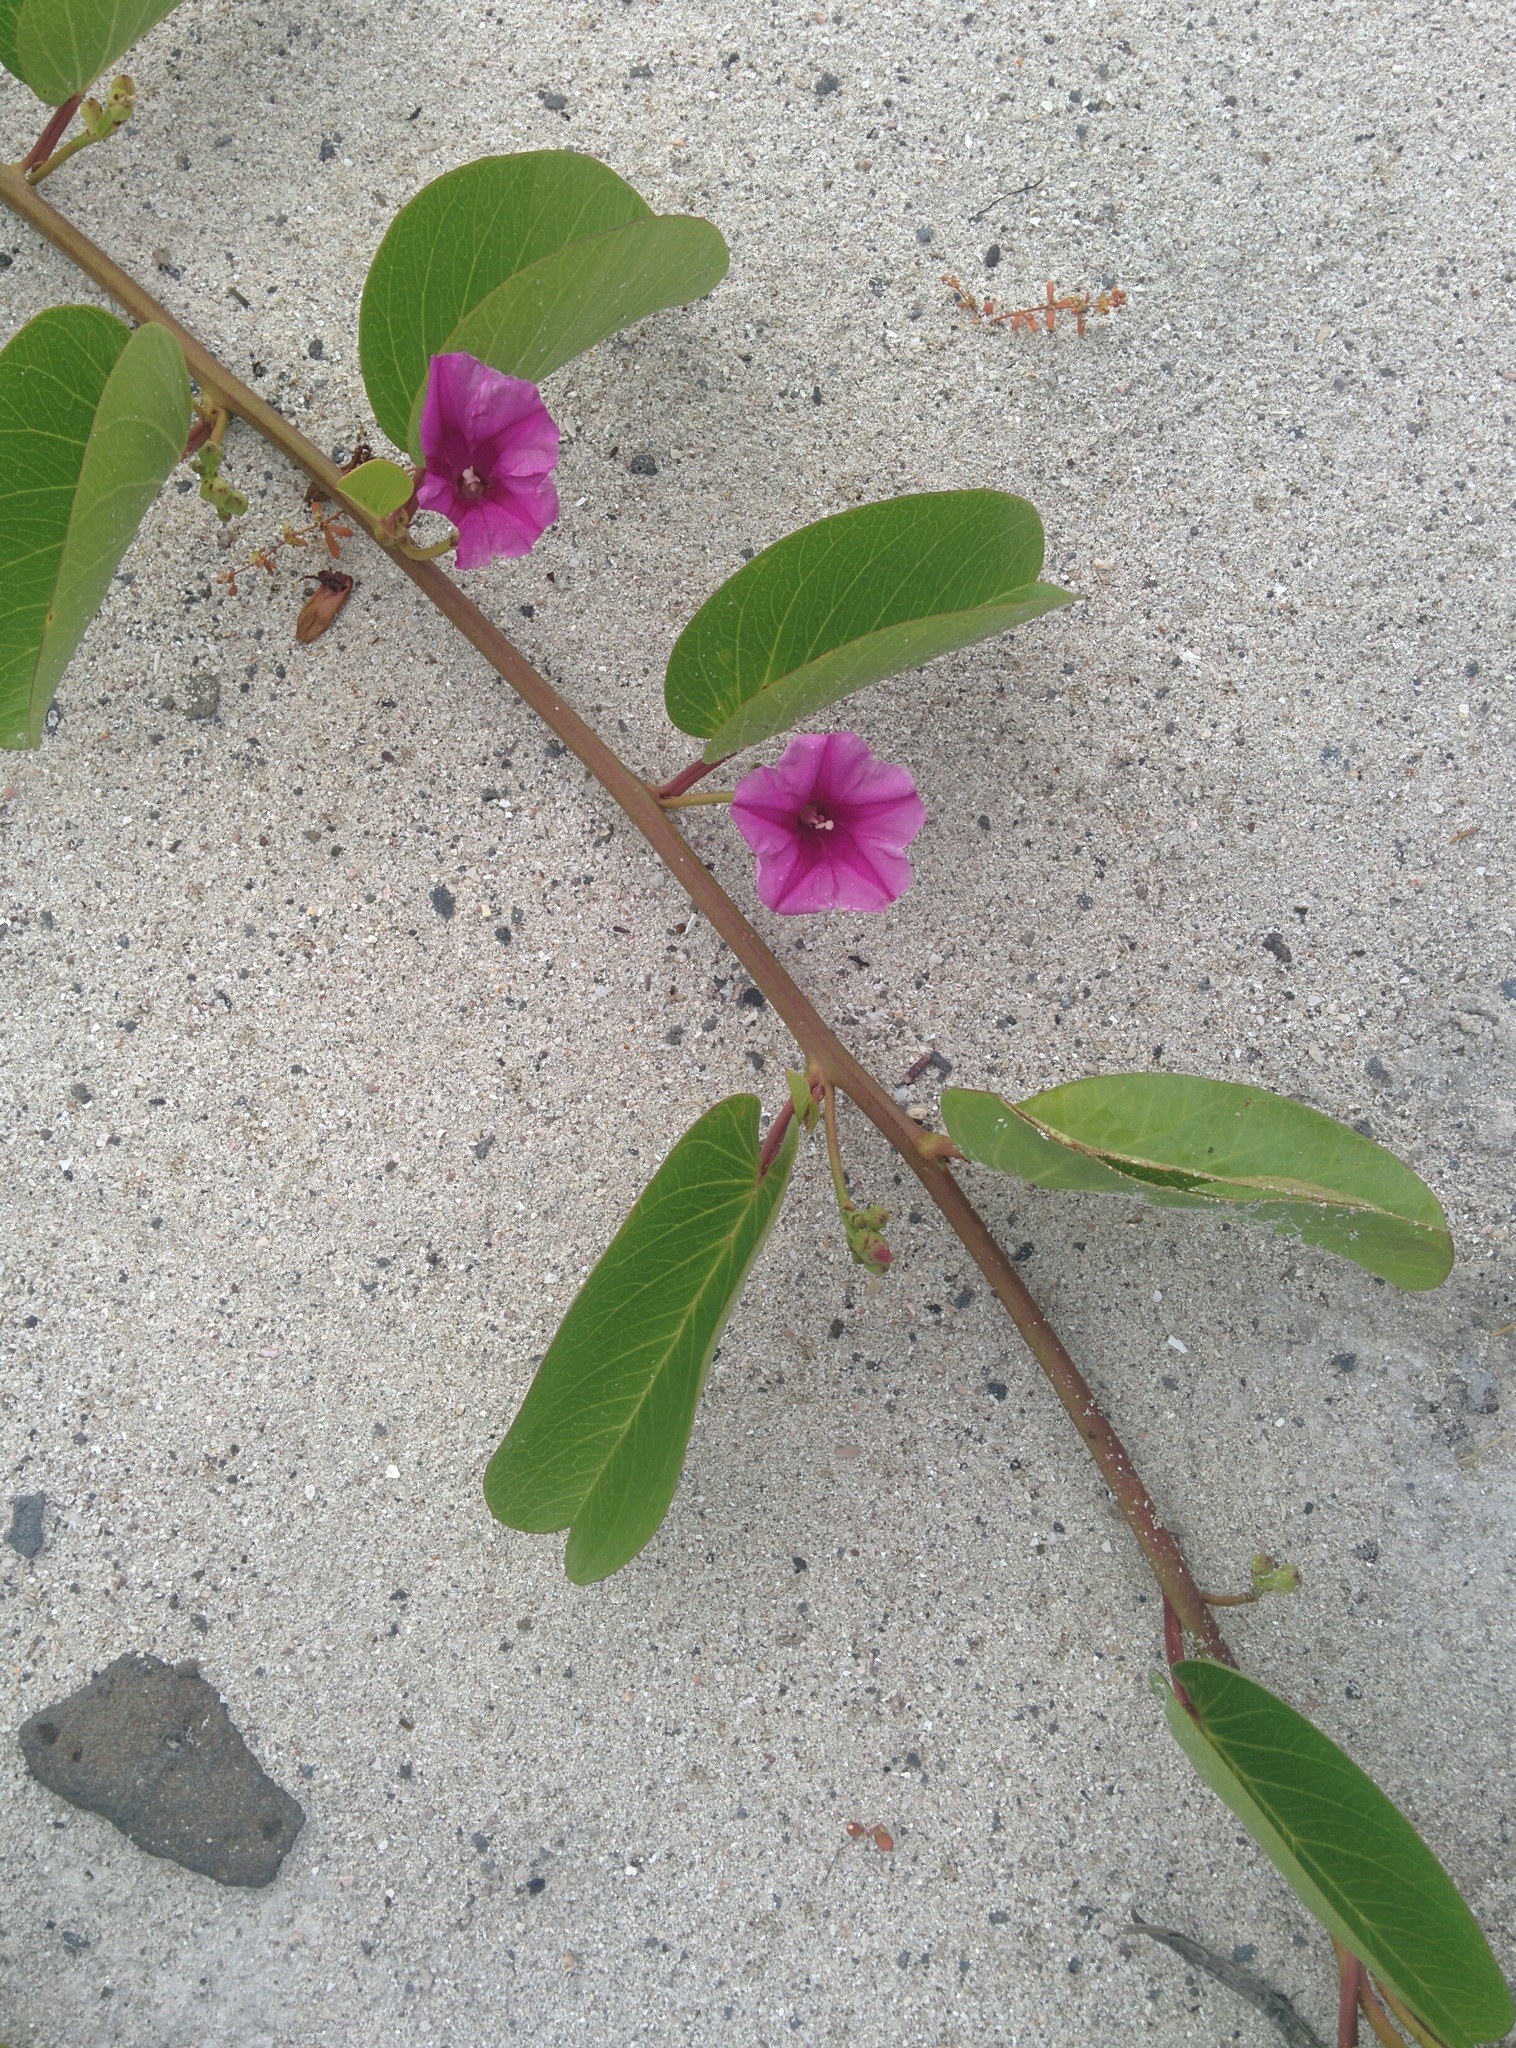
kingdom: Plantae
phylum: Tracheophyta
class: Magnoliopsida
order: Solanales
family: Convolvulaceae
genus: Ipomoea
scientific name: Ipomoea pes-caprae
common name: Beach morning glory
